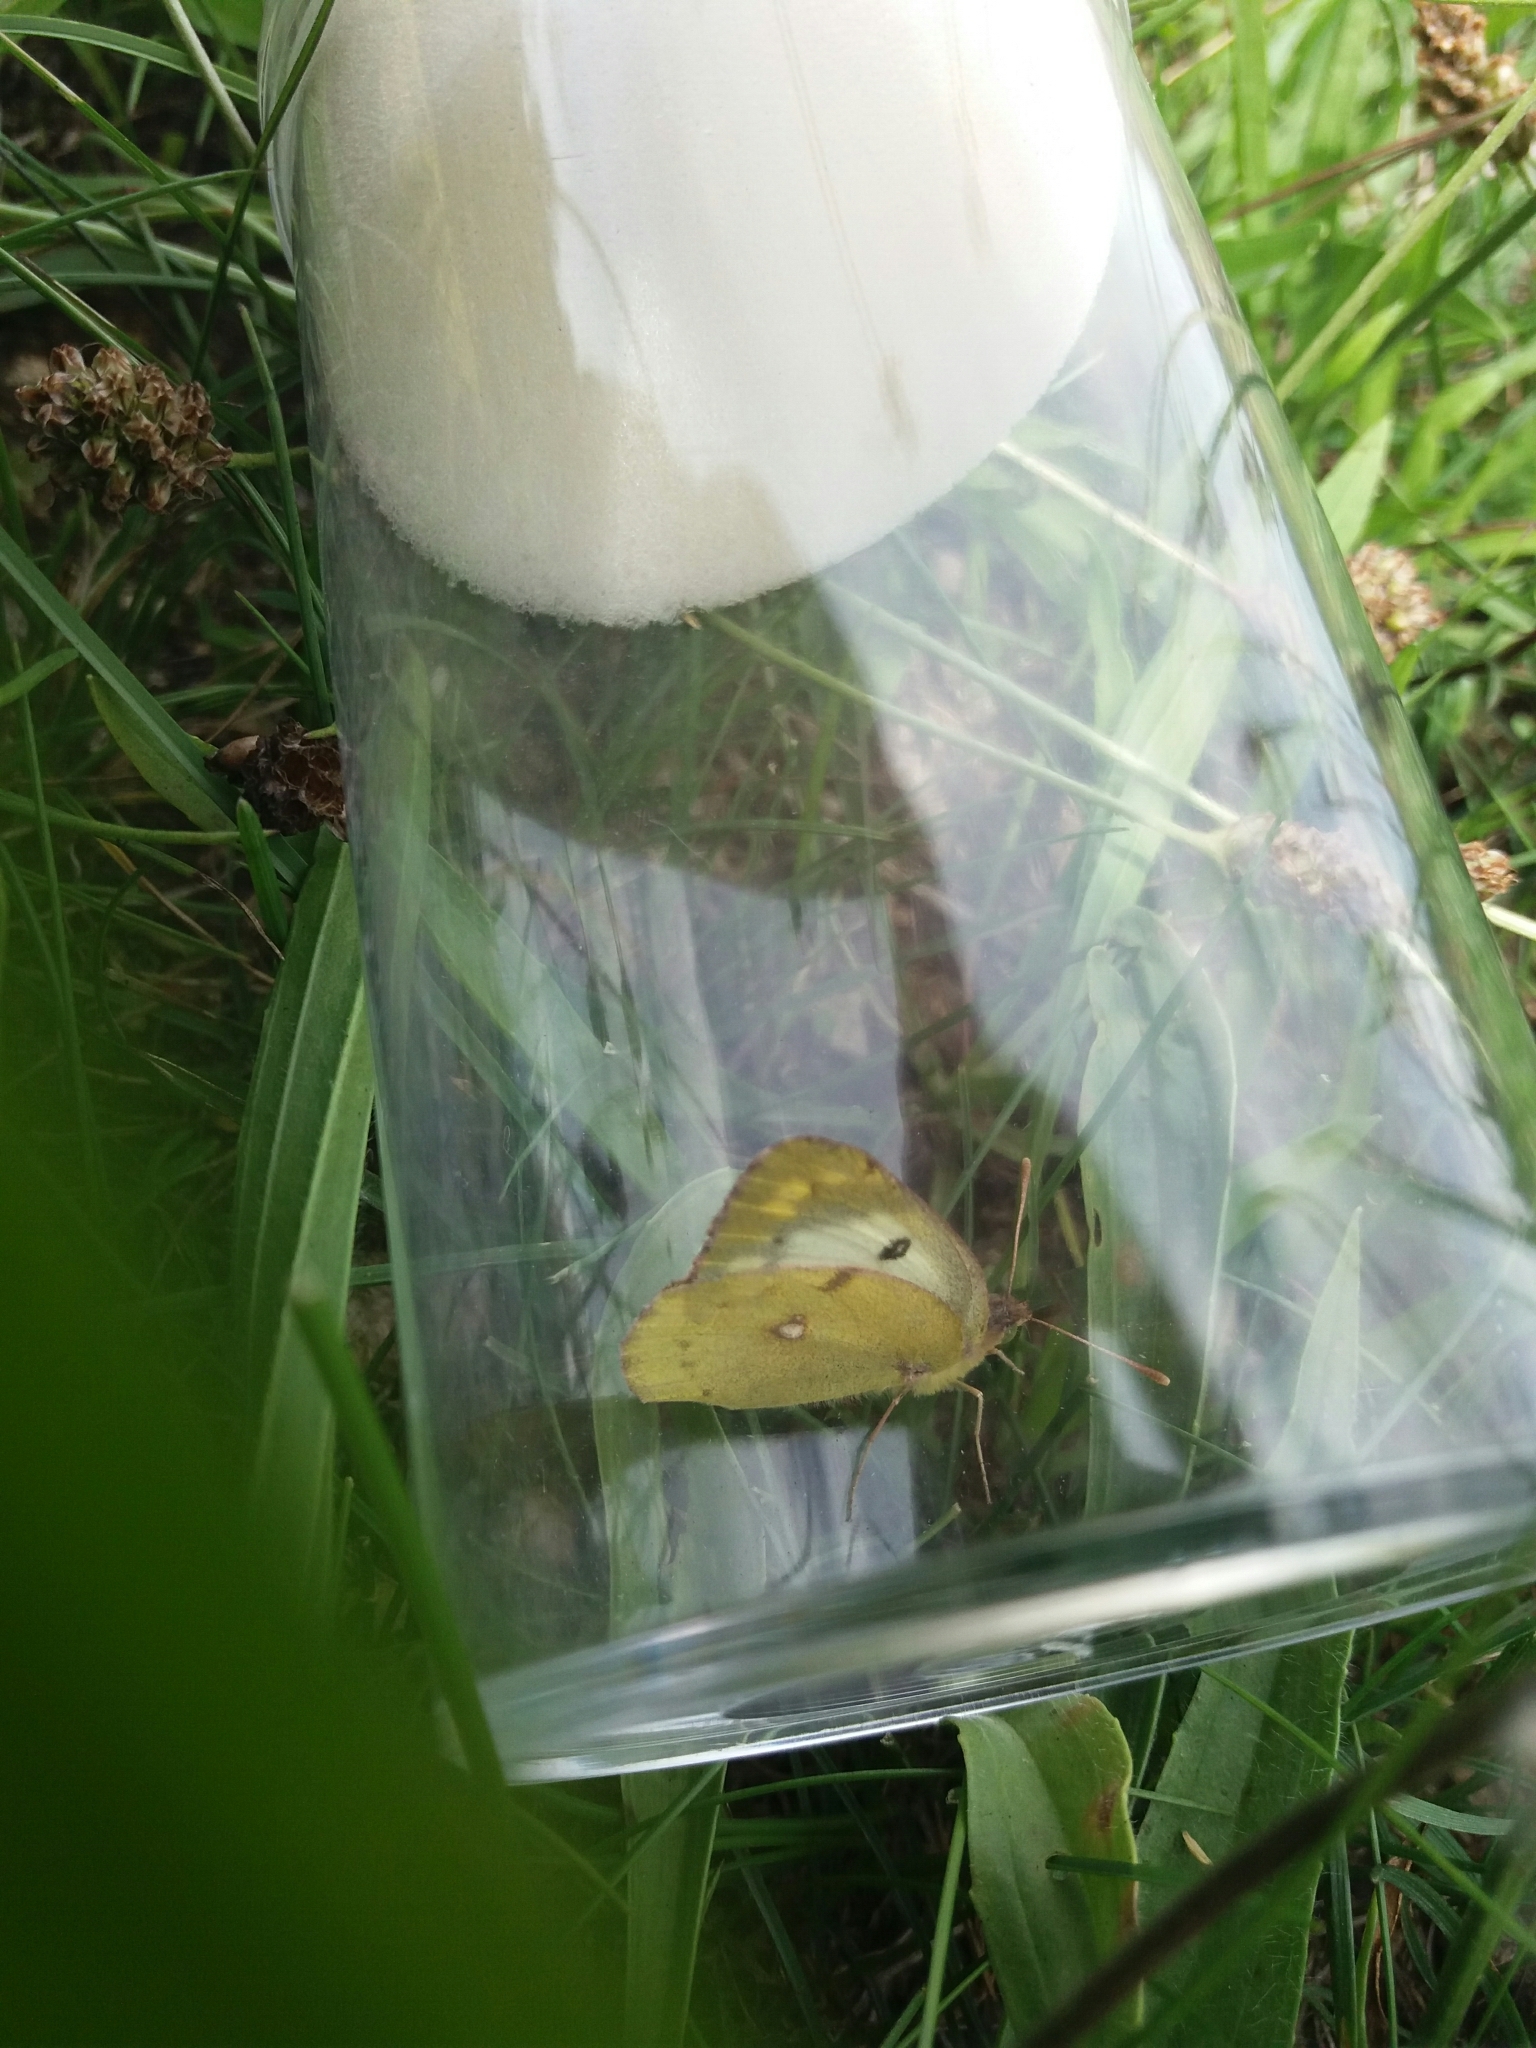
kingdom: Animalia
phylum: Arthropoda
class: Insecta
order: Lepidoptera
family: Pieridae
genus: Colias
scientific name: Colias hyale
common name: Pale clouded yellow
